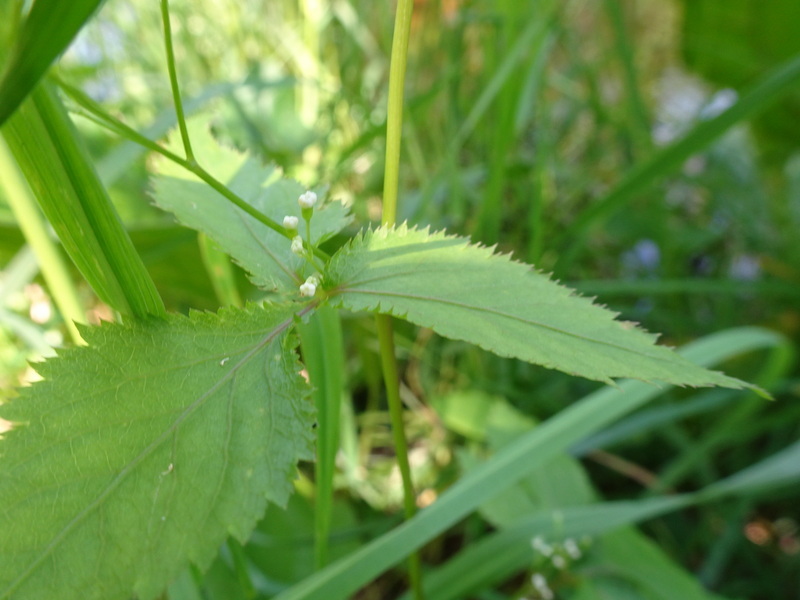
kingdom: Plantae
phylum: Tracheophyta
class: Magnoliopsida
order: Apiales
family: Apiaceae
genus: Cryptotaenia
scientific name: Cryptotaenia canadensis
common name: Honewort
